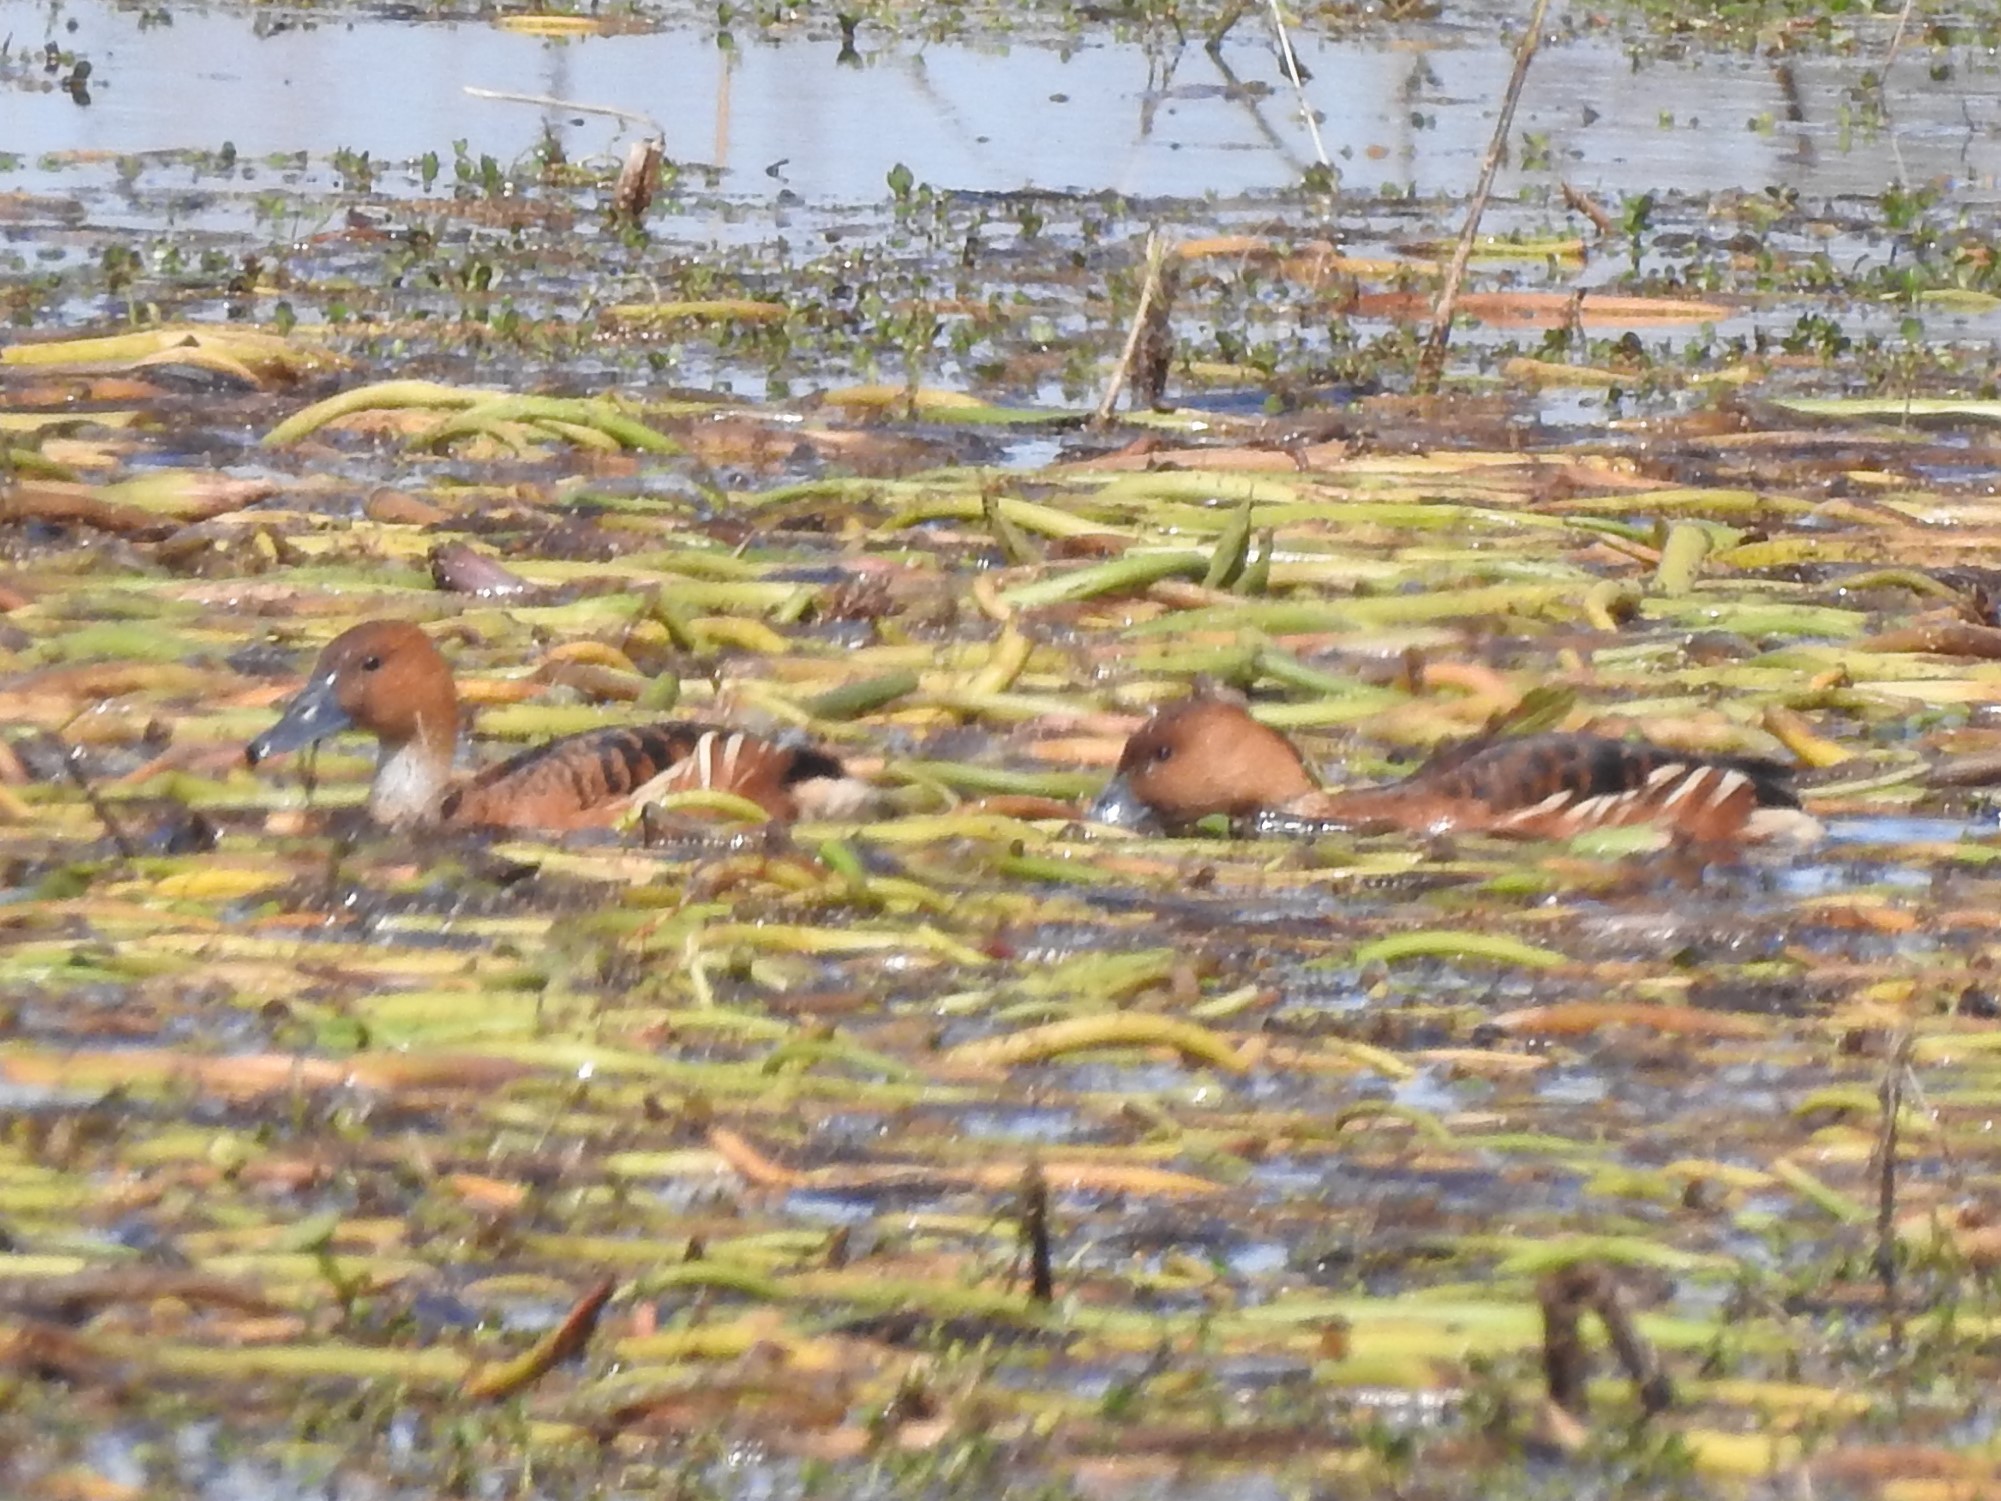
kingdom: Animalia
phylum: Chordata
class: Aves
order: Anseriformes
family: Anatidae
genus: Dendrocygna
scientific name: Dendrocygna bicolor
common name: Fulvous whistling duck
